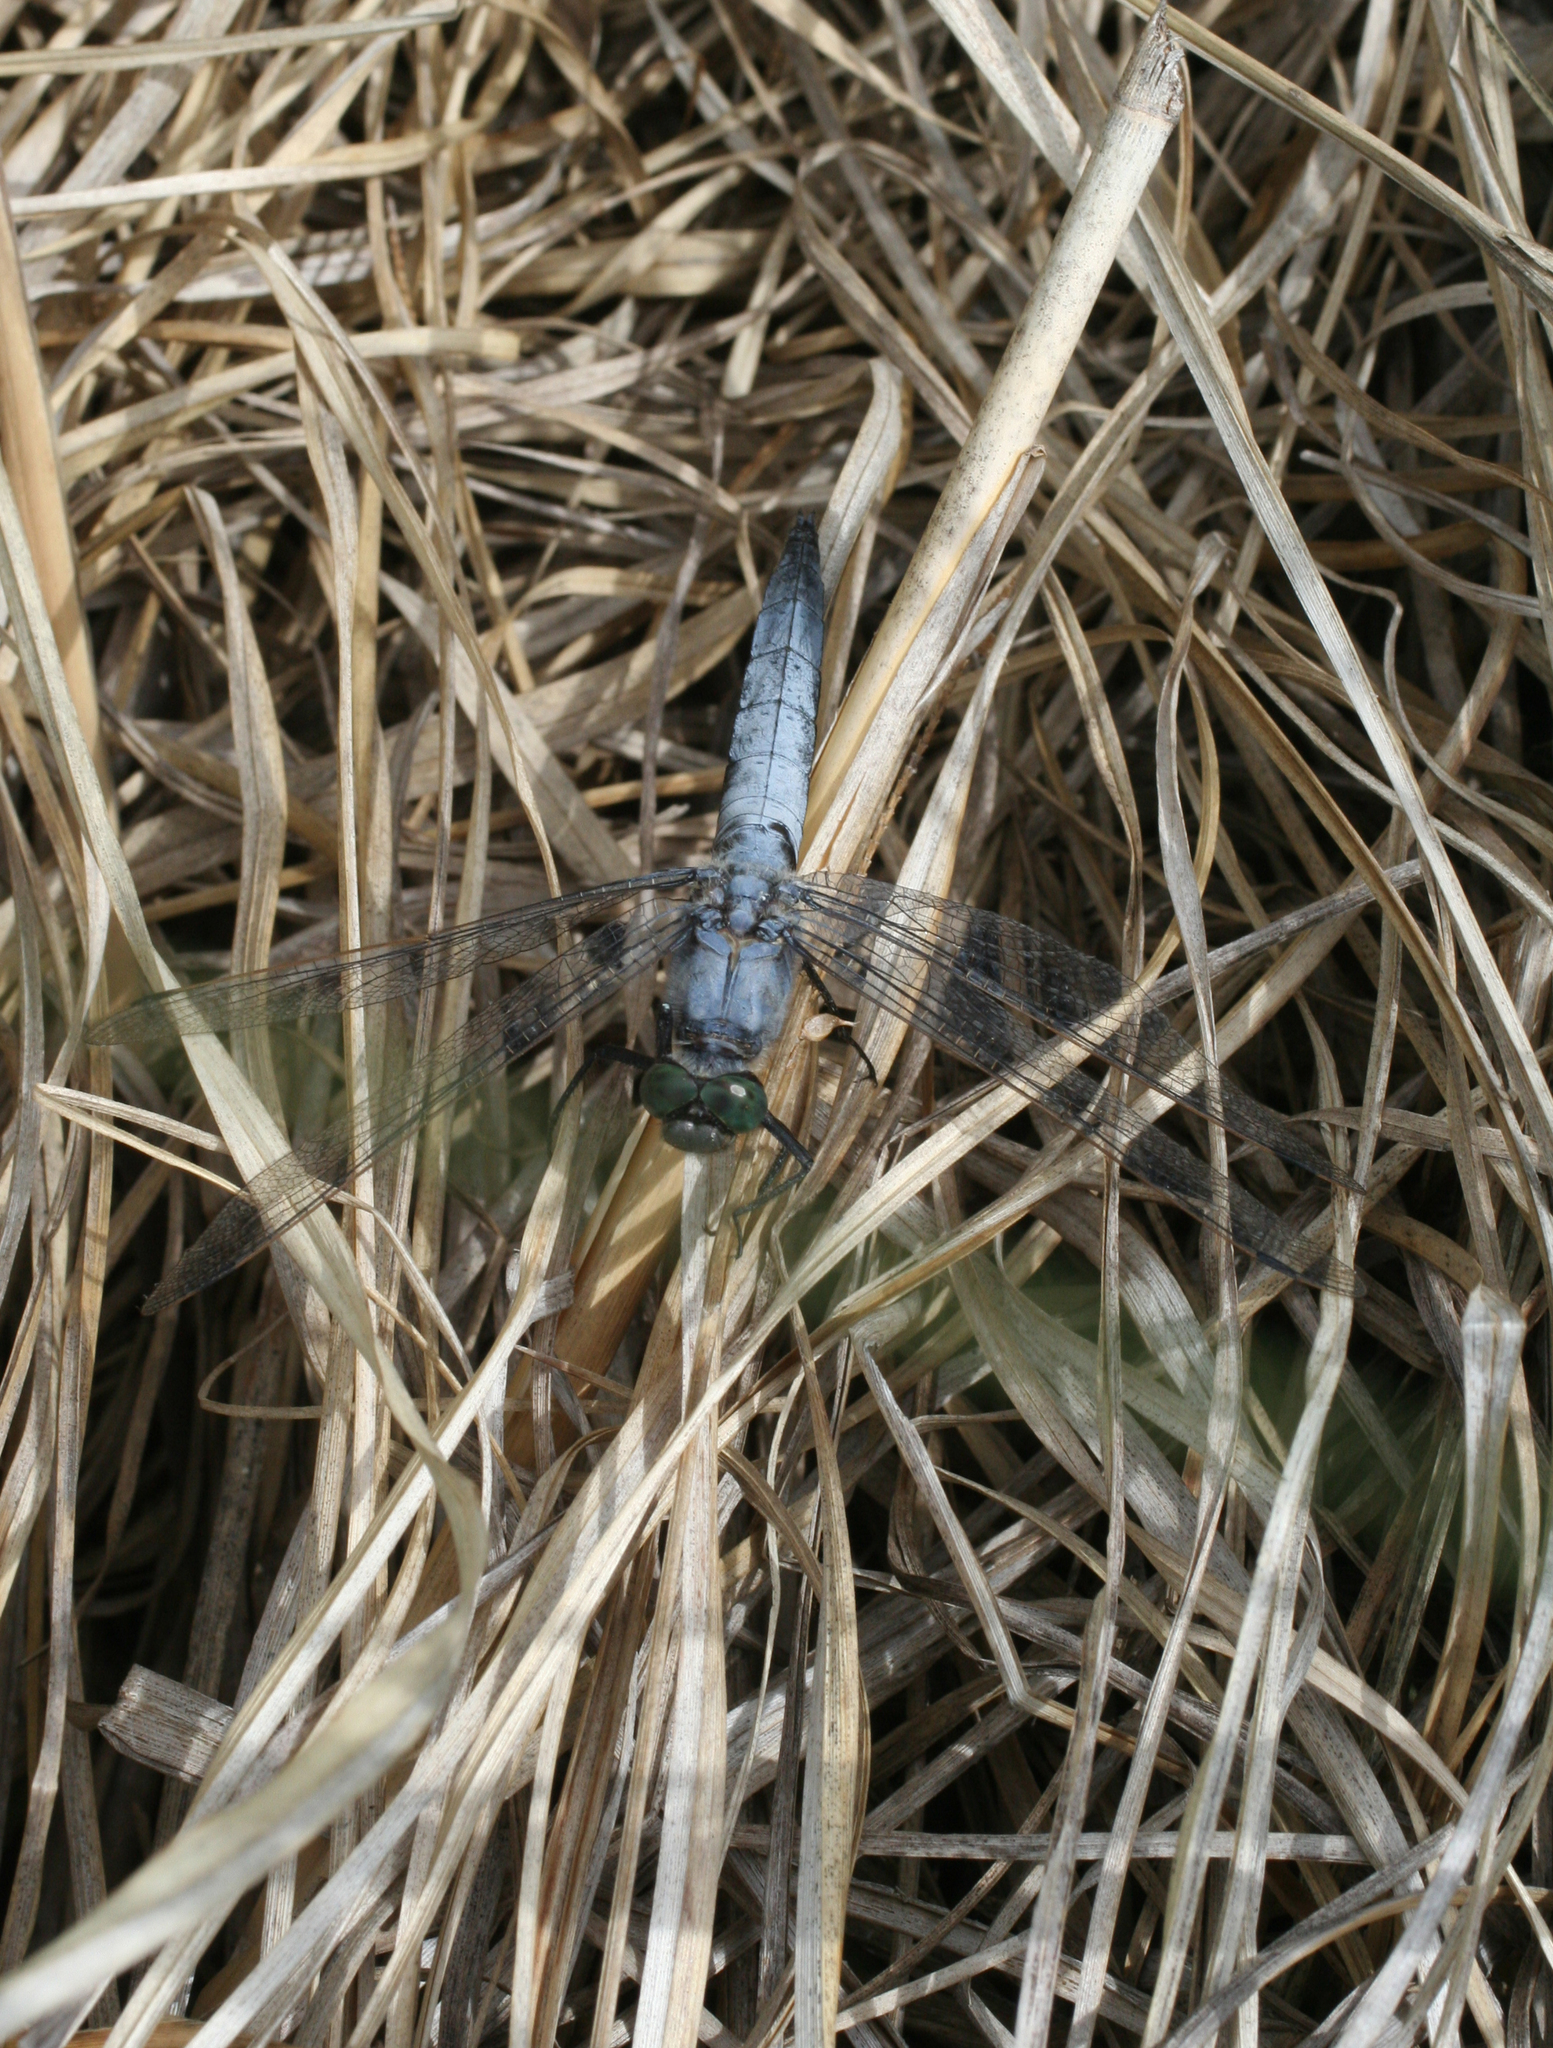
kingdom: Animalia
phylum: Arthropoda
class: Insecta
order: Odonata
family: Libellulidae
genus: Orthetrum
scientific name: Orthetrum cancellatum
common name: Black-tailed skimmer
